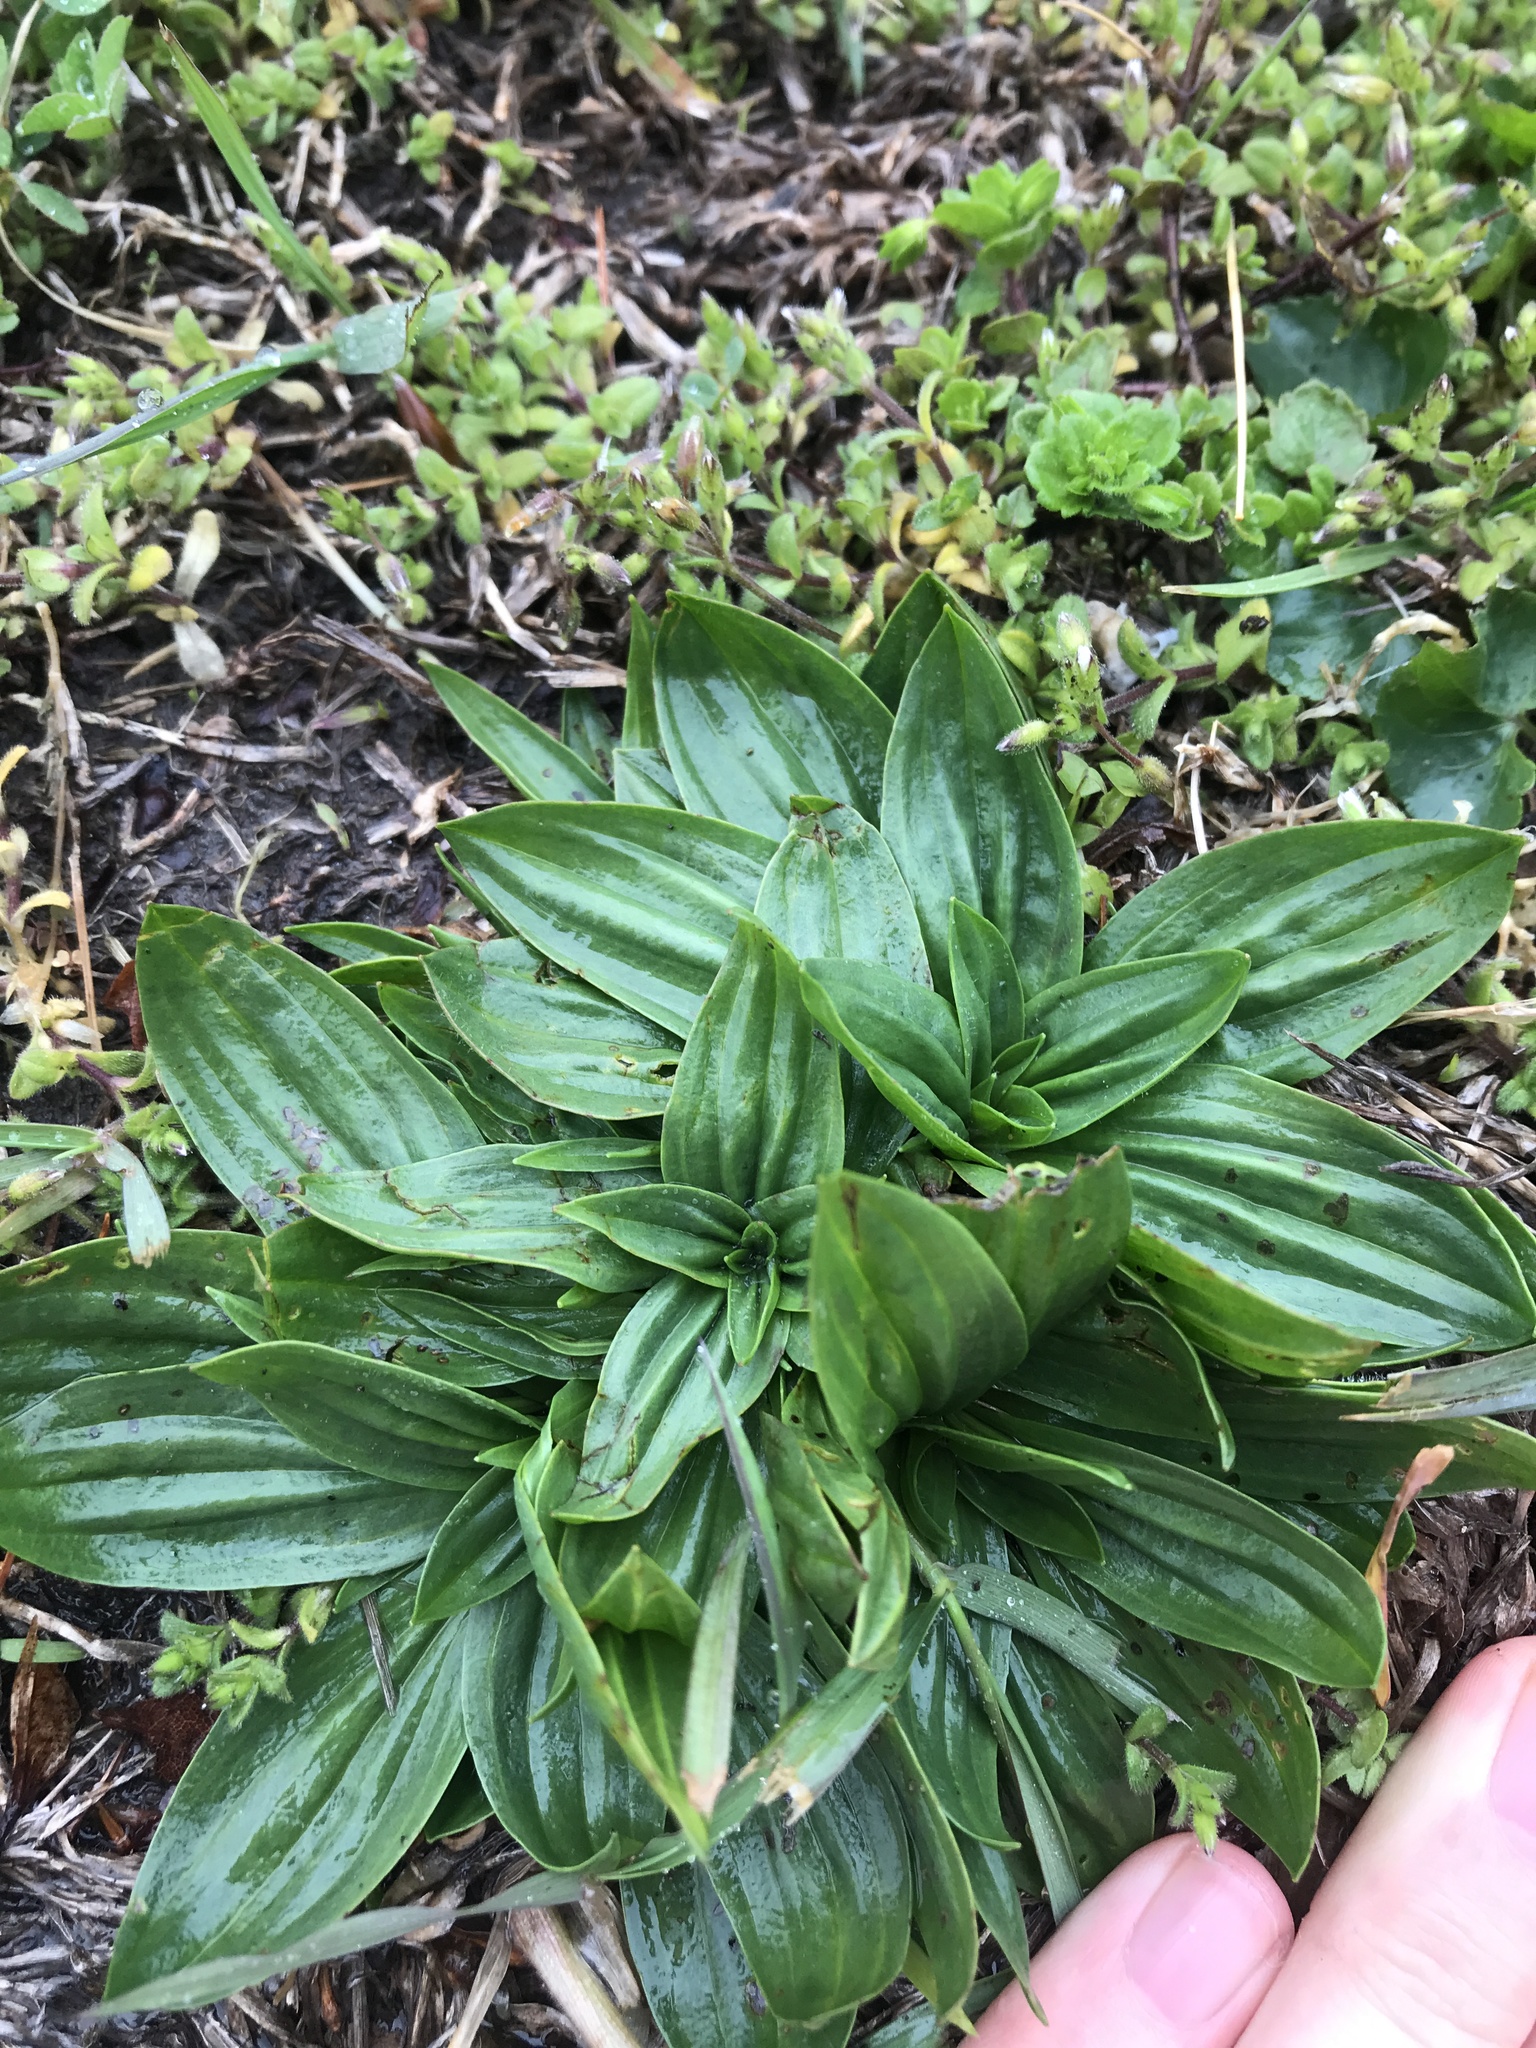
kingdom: Plantae
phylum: Tracheophyta
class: Magnoliopsida
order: Lamiales
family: Plantaginaceae
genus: Plantago
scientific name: Plantago lanceolata
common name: Ribwort plantain
